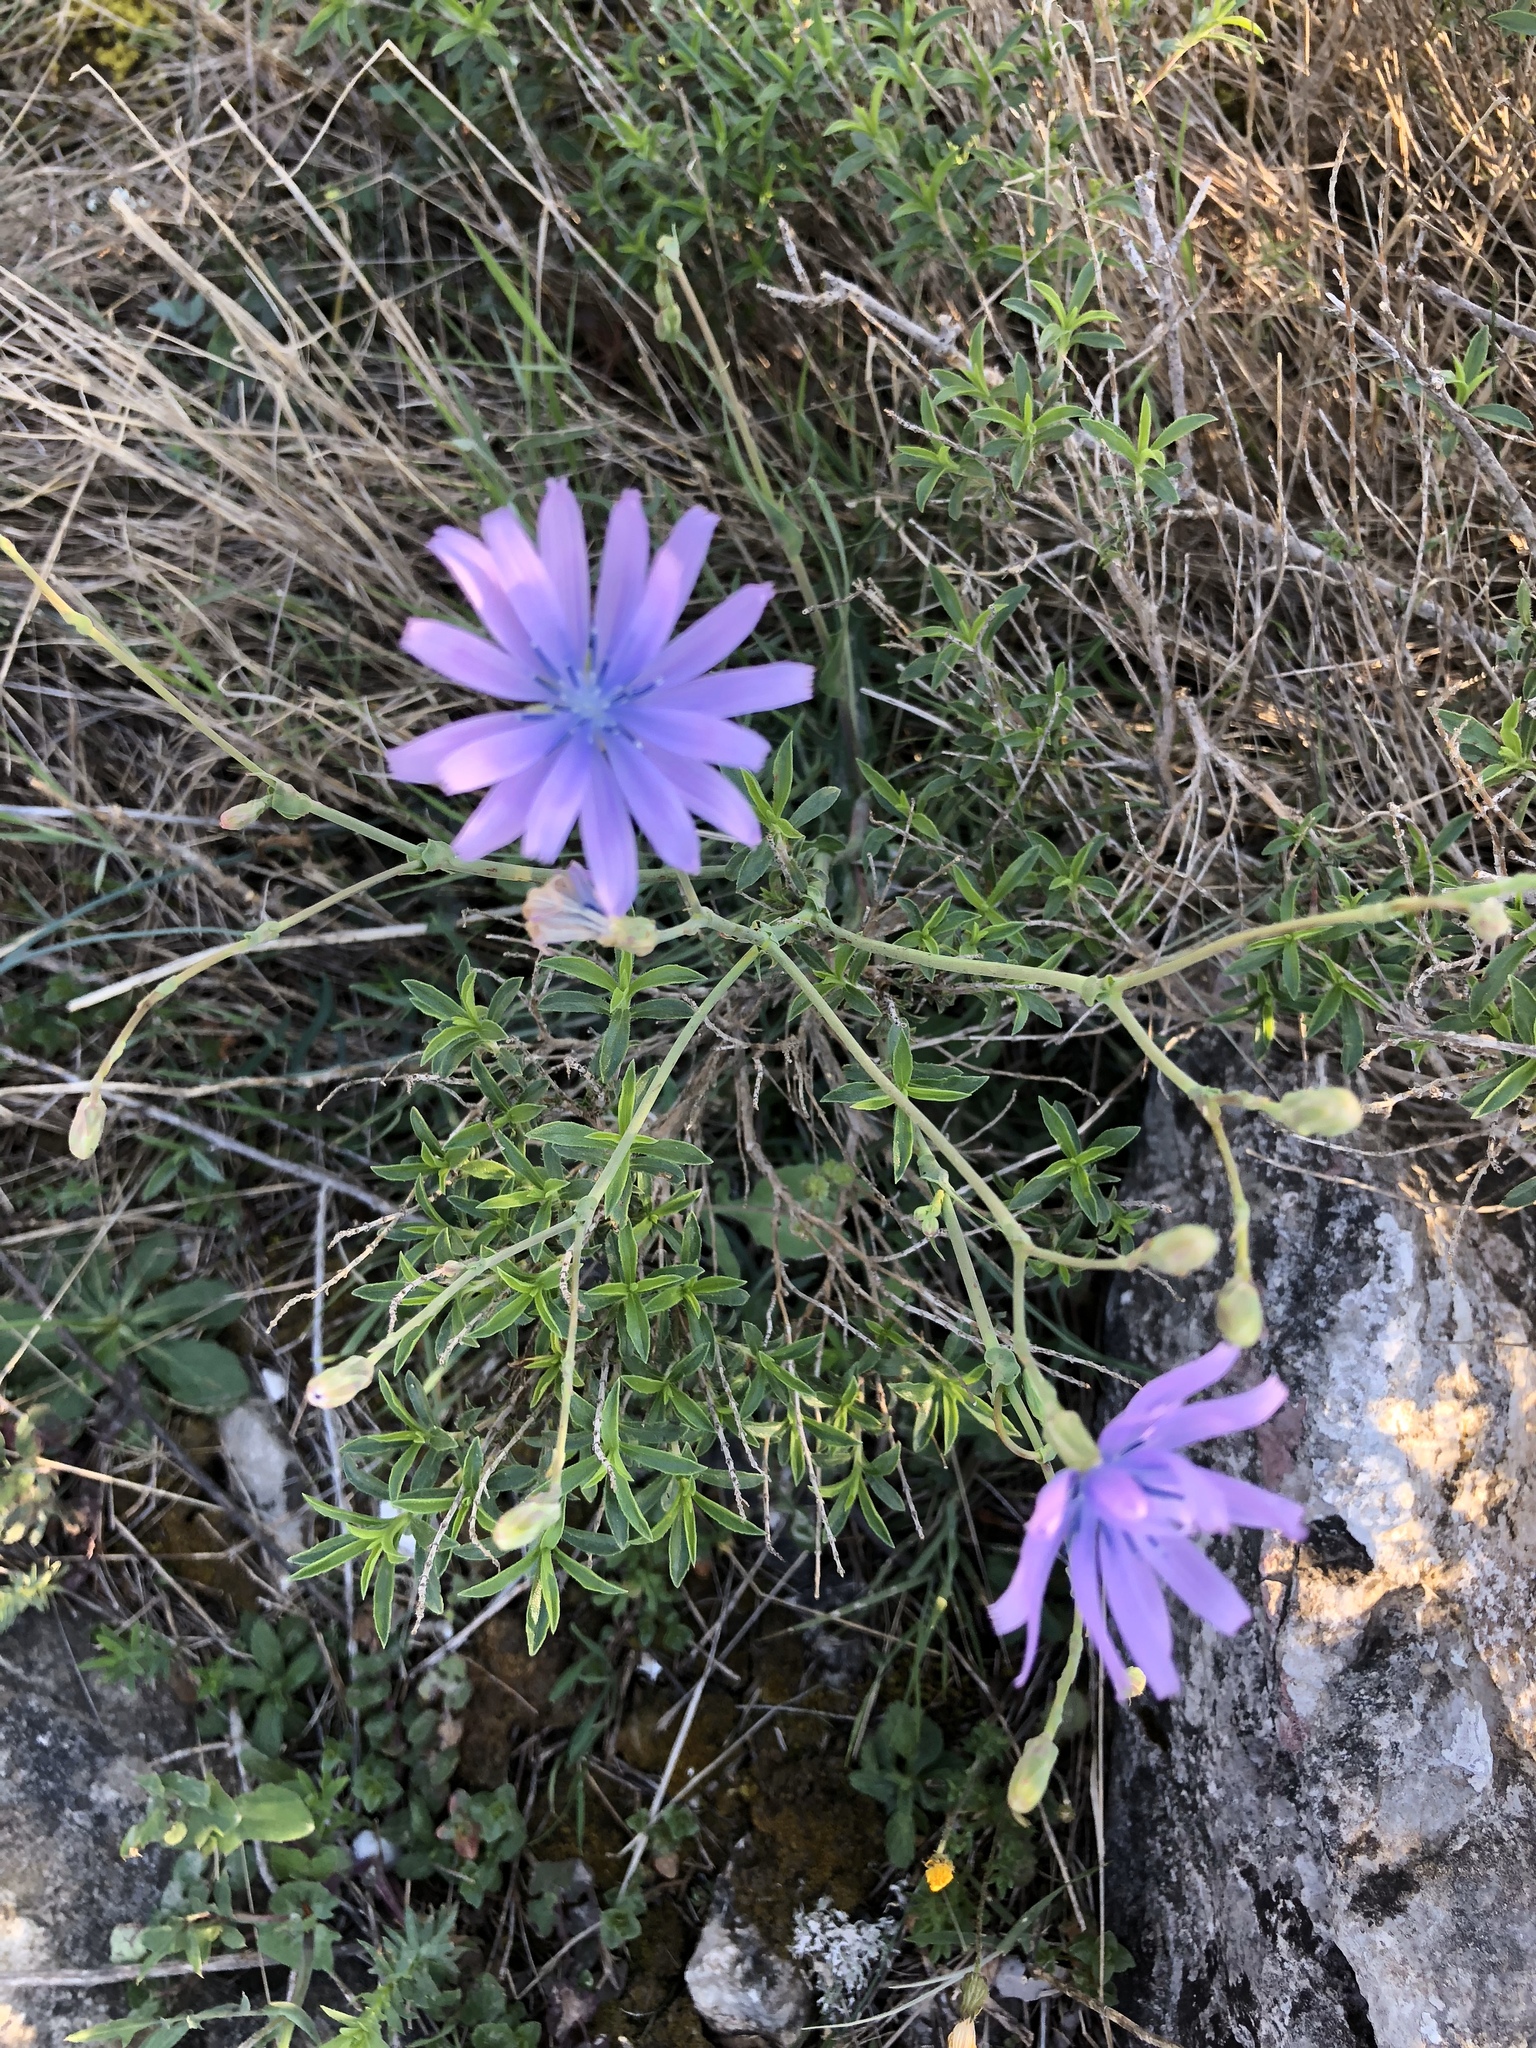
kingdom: Plantae
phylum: Tracheophyta
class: Magnoliopsida
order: Asterales
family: Asteraceae
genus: Lactuca
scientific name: Lactuca perennis
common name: Mountain lettuce
